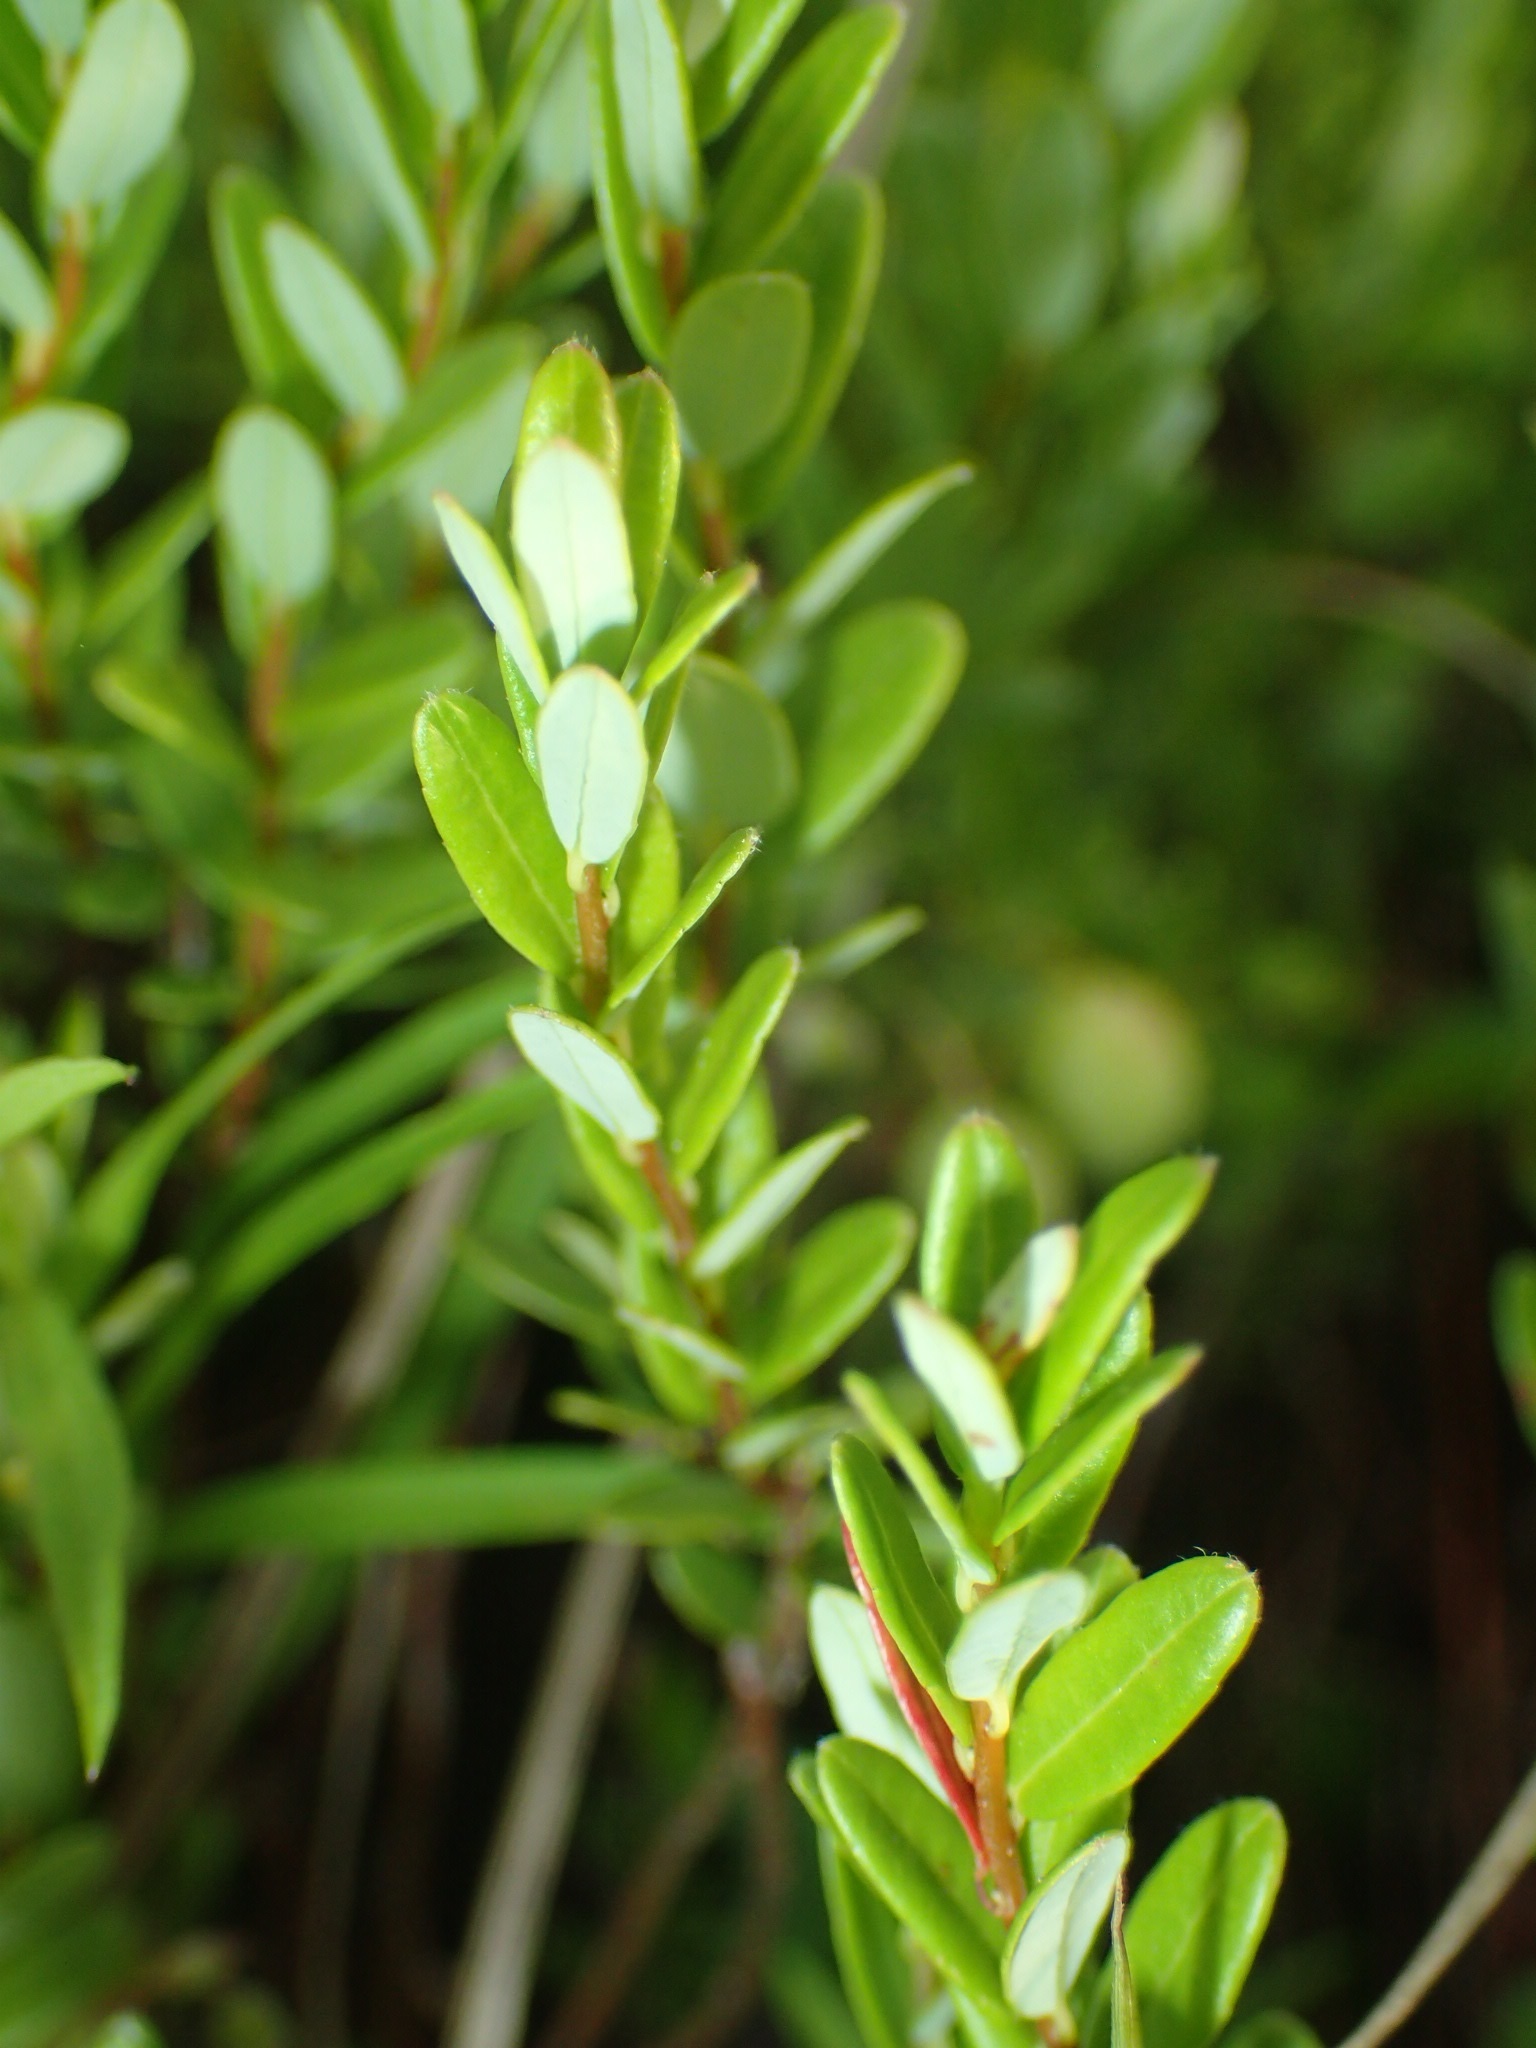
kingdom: Plantae
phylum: Tracheophyta
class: Magnoliopsida
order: Ericales
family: Ericaceae
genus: Vaccinium
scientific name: Vaccinium macrocarpon
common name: American cranberry
